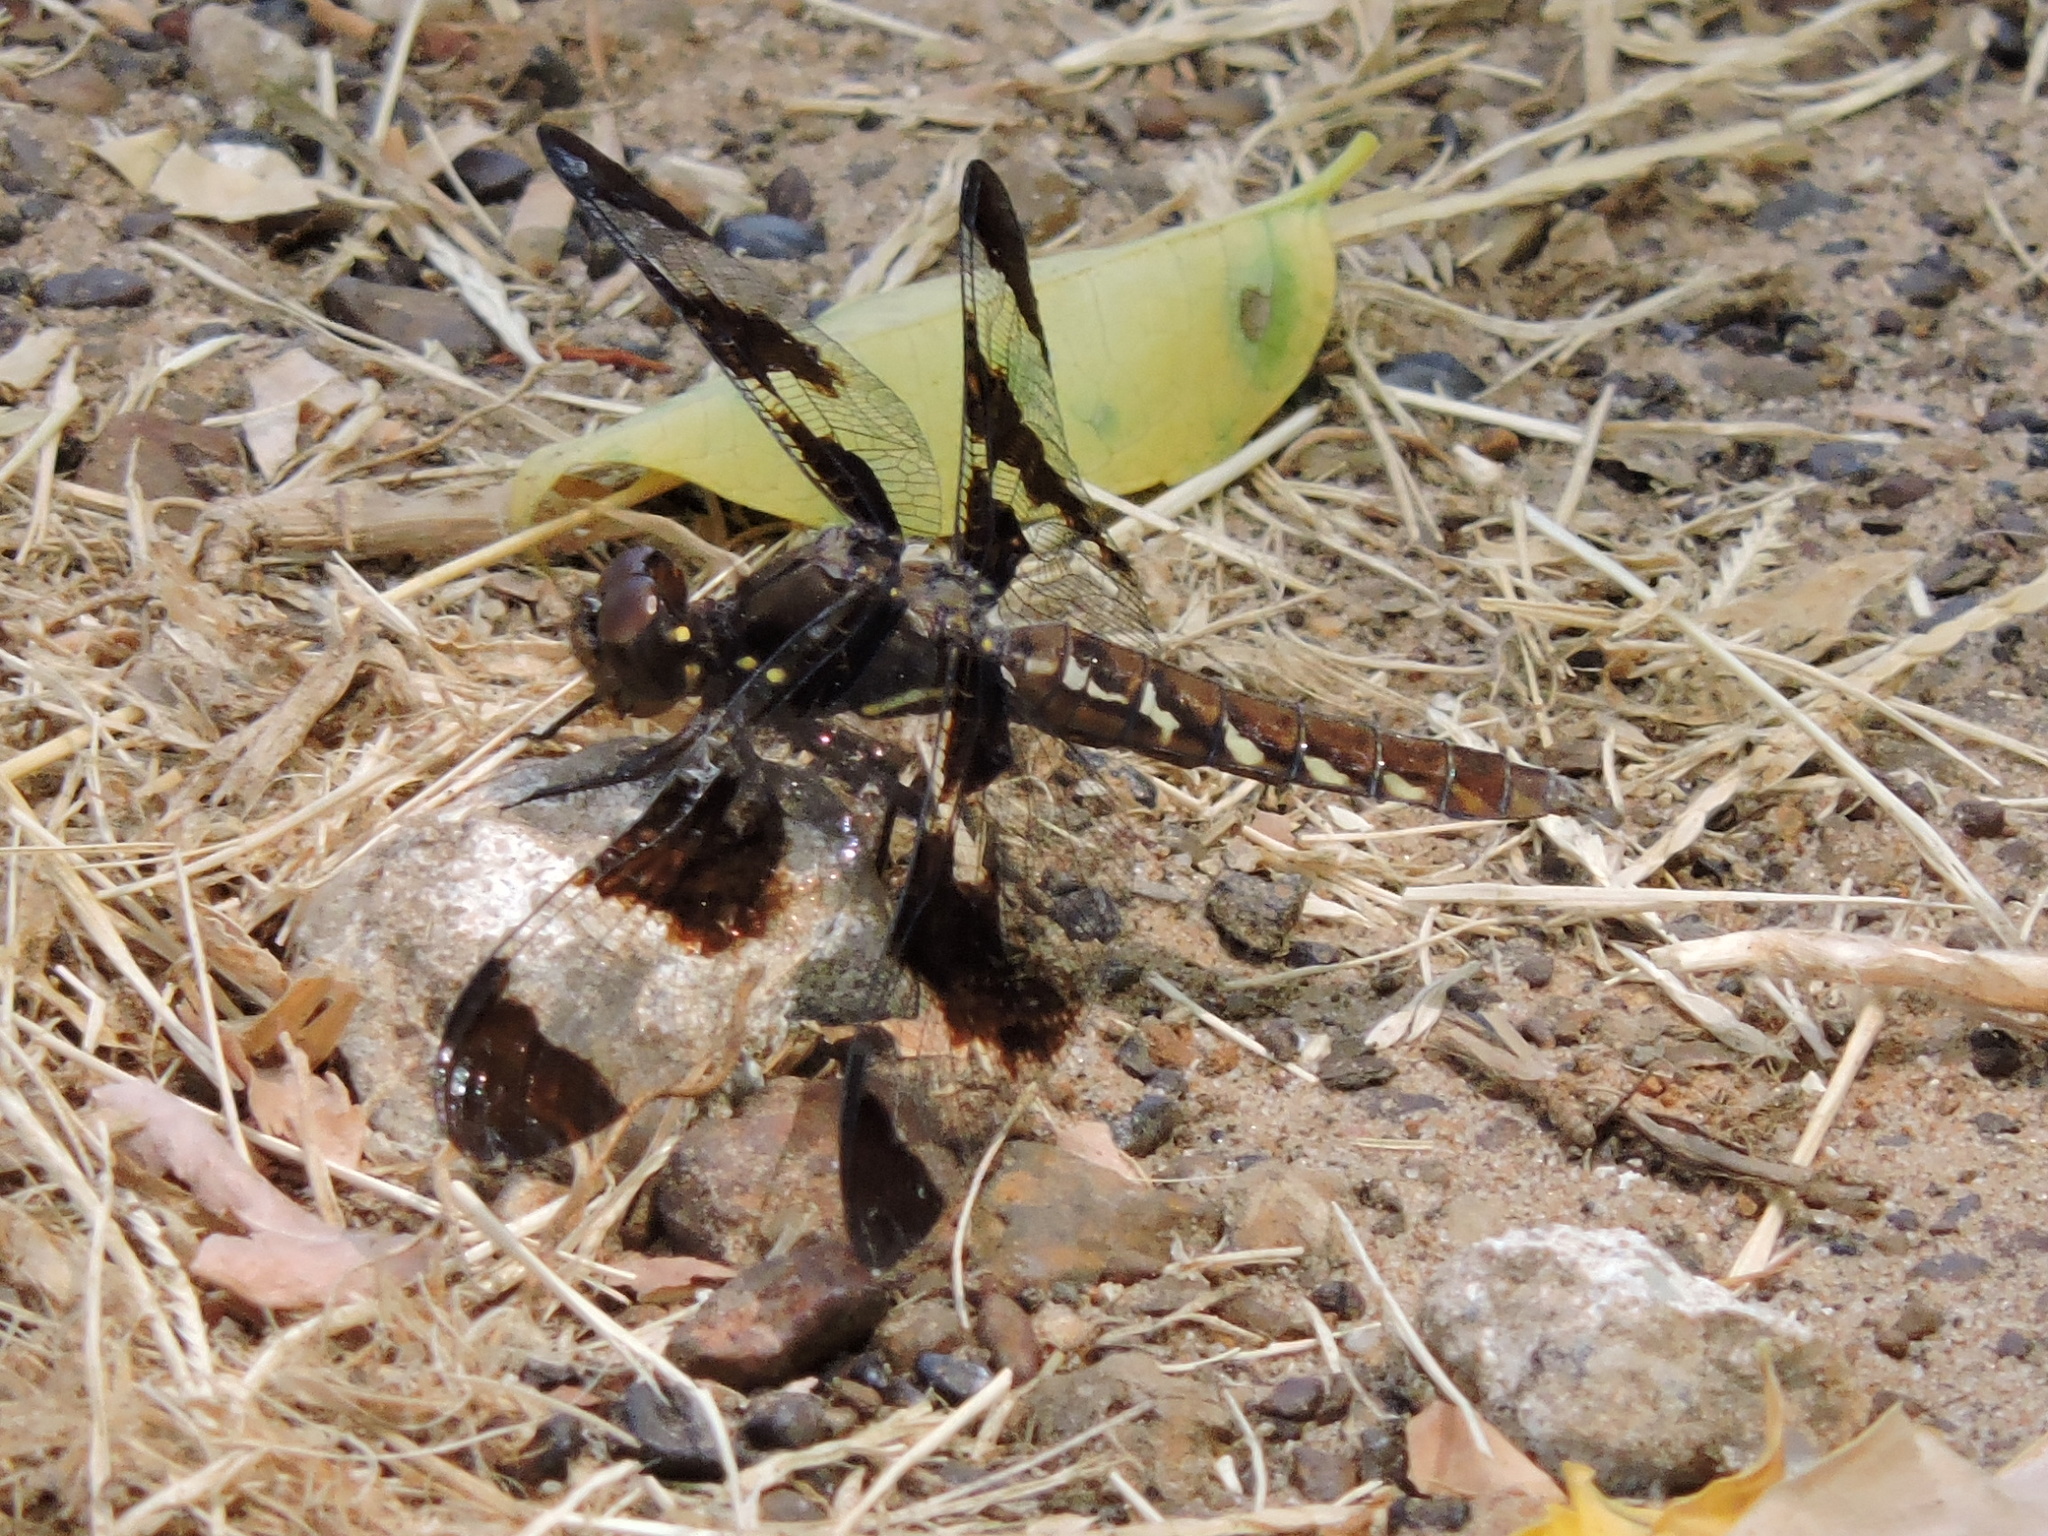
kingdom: Animalia
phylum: Arthropoda
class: Insecta
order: Odonata
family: Libellulidae
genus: Plathemis
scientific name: Plathemis lydia
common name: Common whitetail
